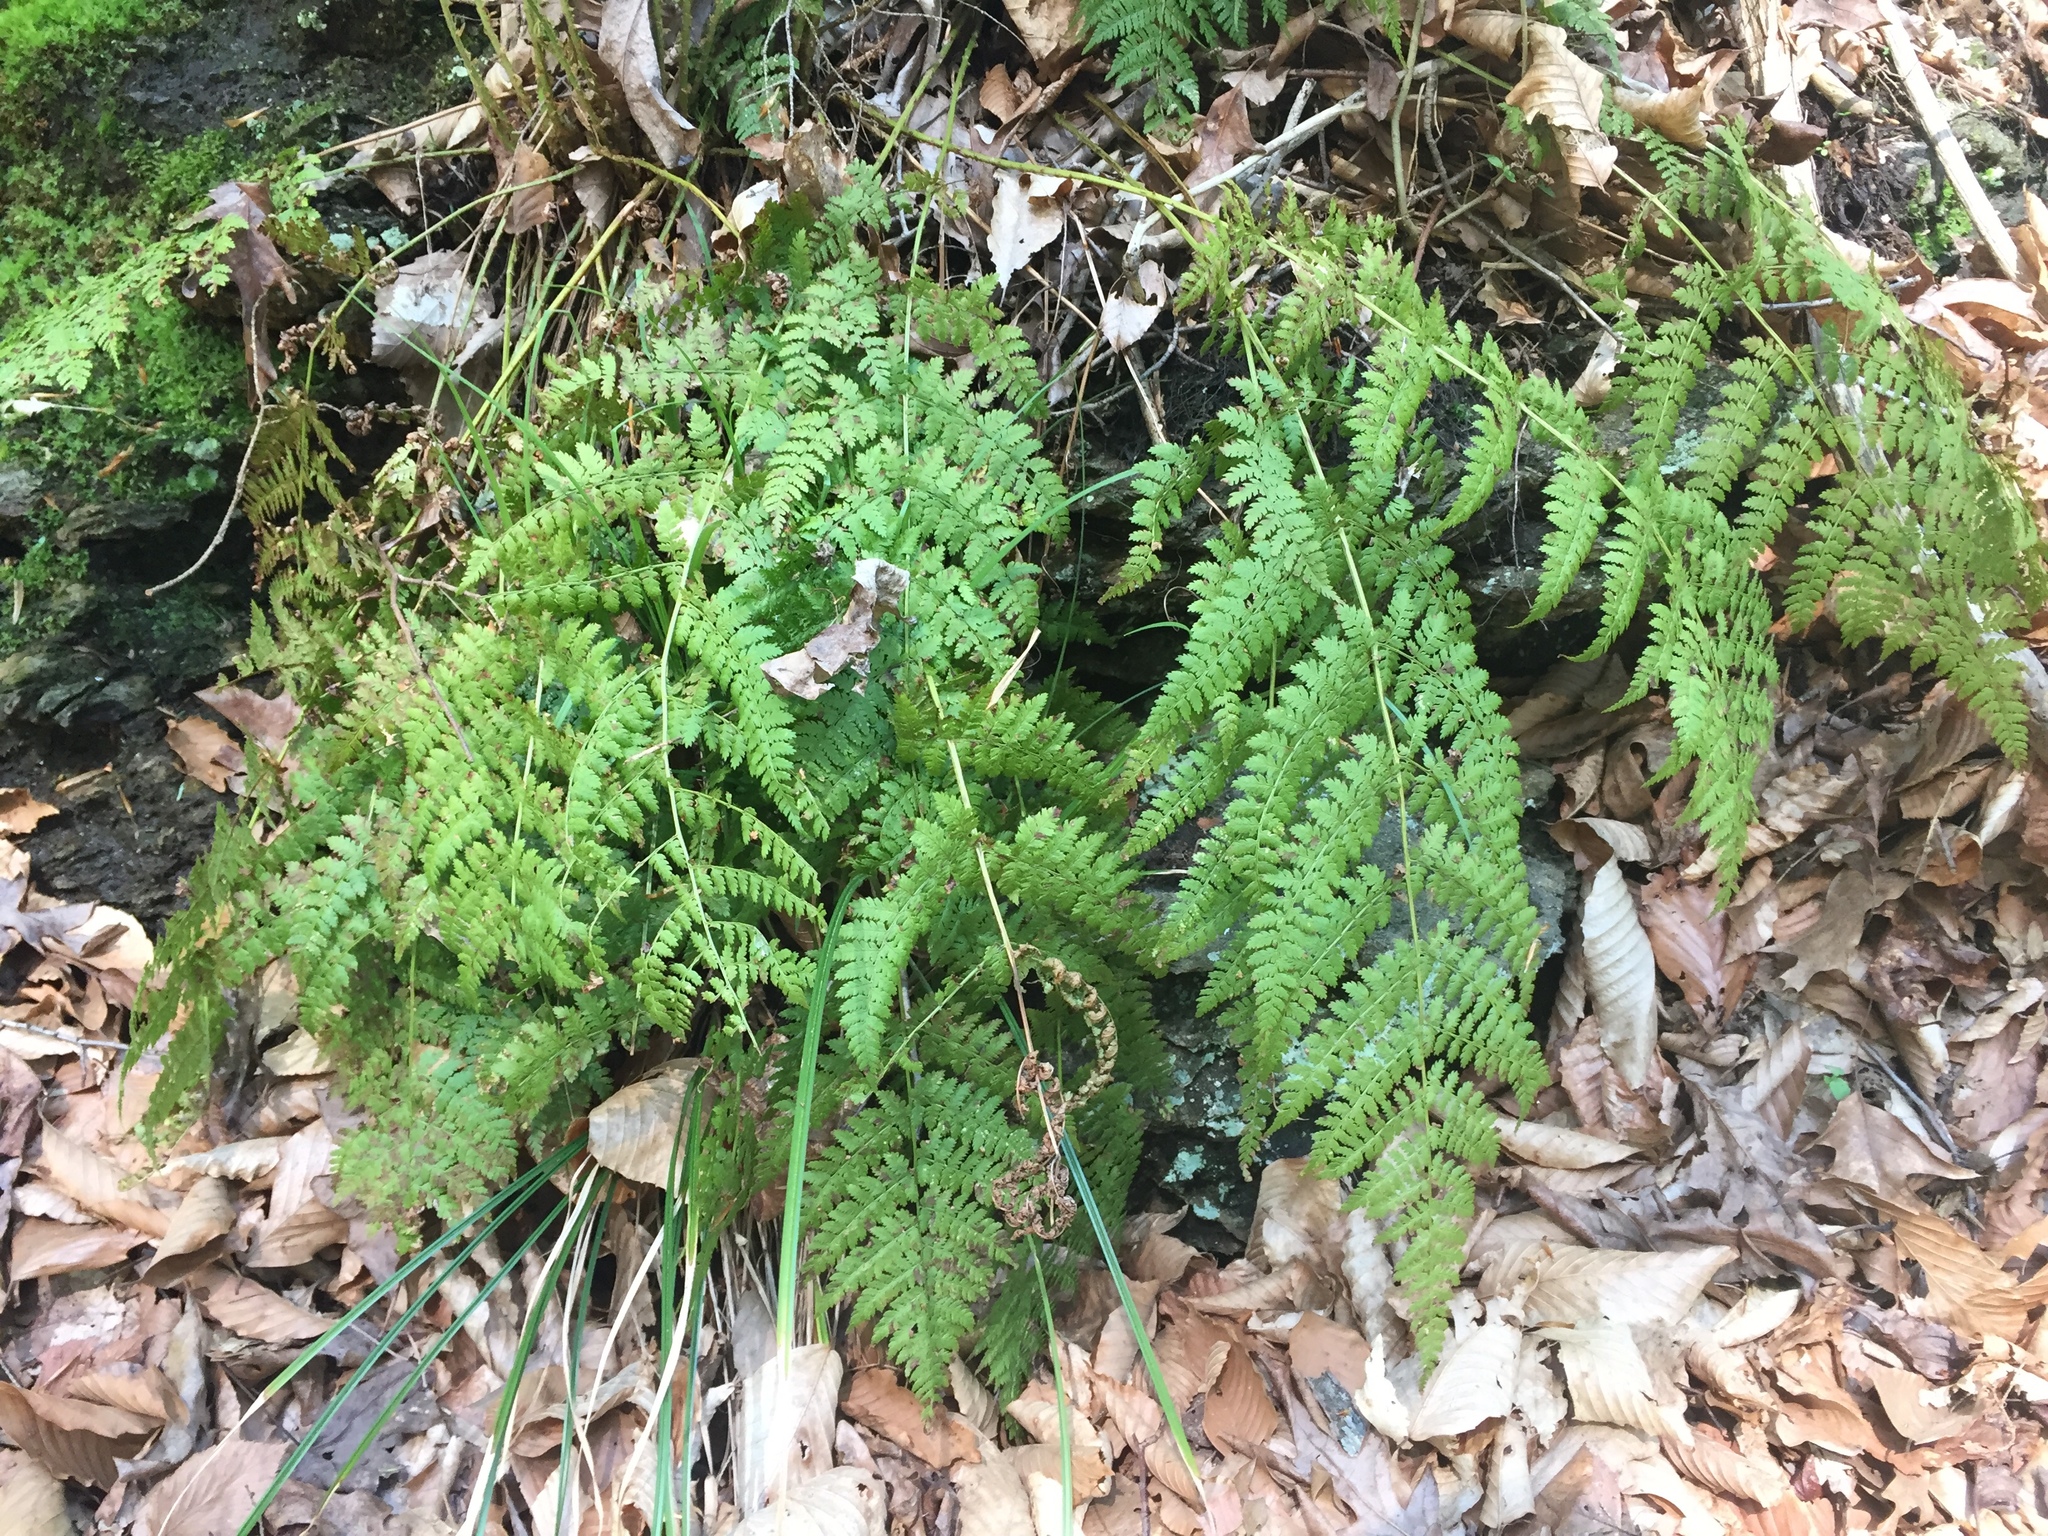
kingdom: Plantae
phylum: Tracheophyta
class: Polypodiopsida
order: Polypodiales
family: Dryopteridaceae
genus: Dryopteris
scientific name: Dryopteris intermedia
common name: Evergreen wood fern
